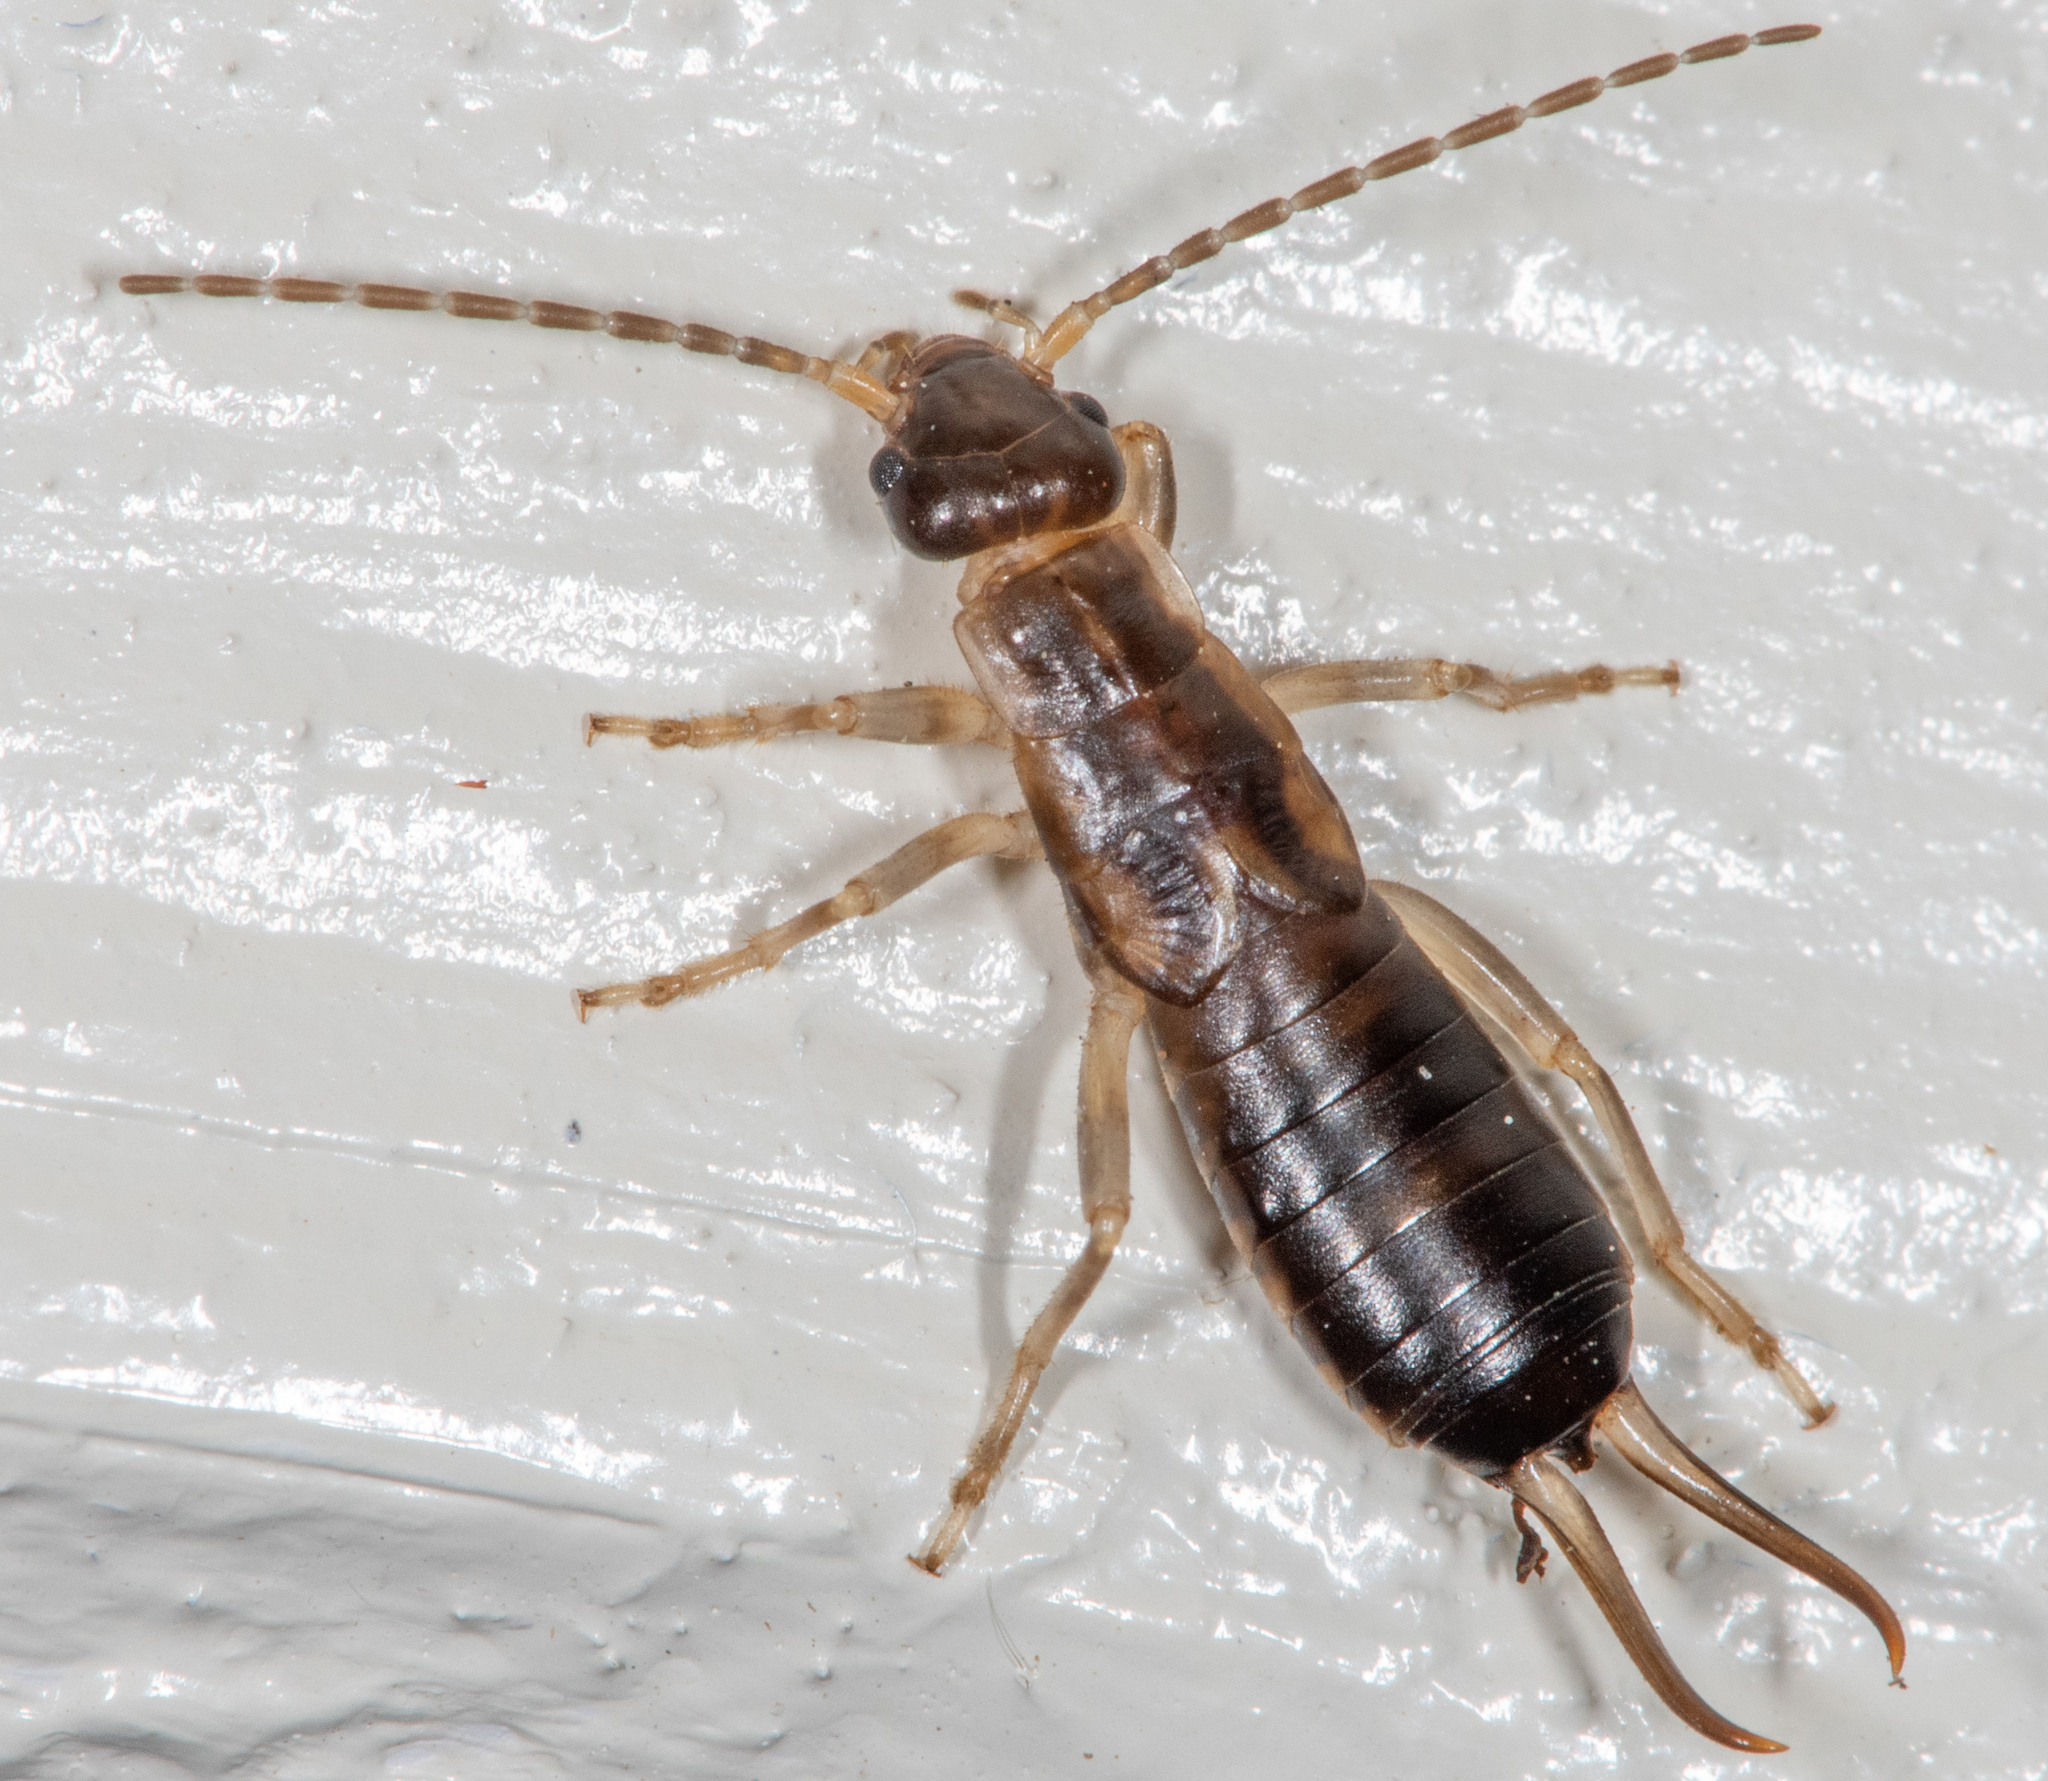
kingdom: Animalia
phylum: Arthropoda
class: Insecta
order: Dermaptera
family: Forficulidae
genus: Forficula
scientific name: Forficula
